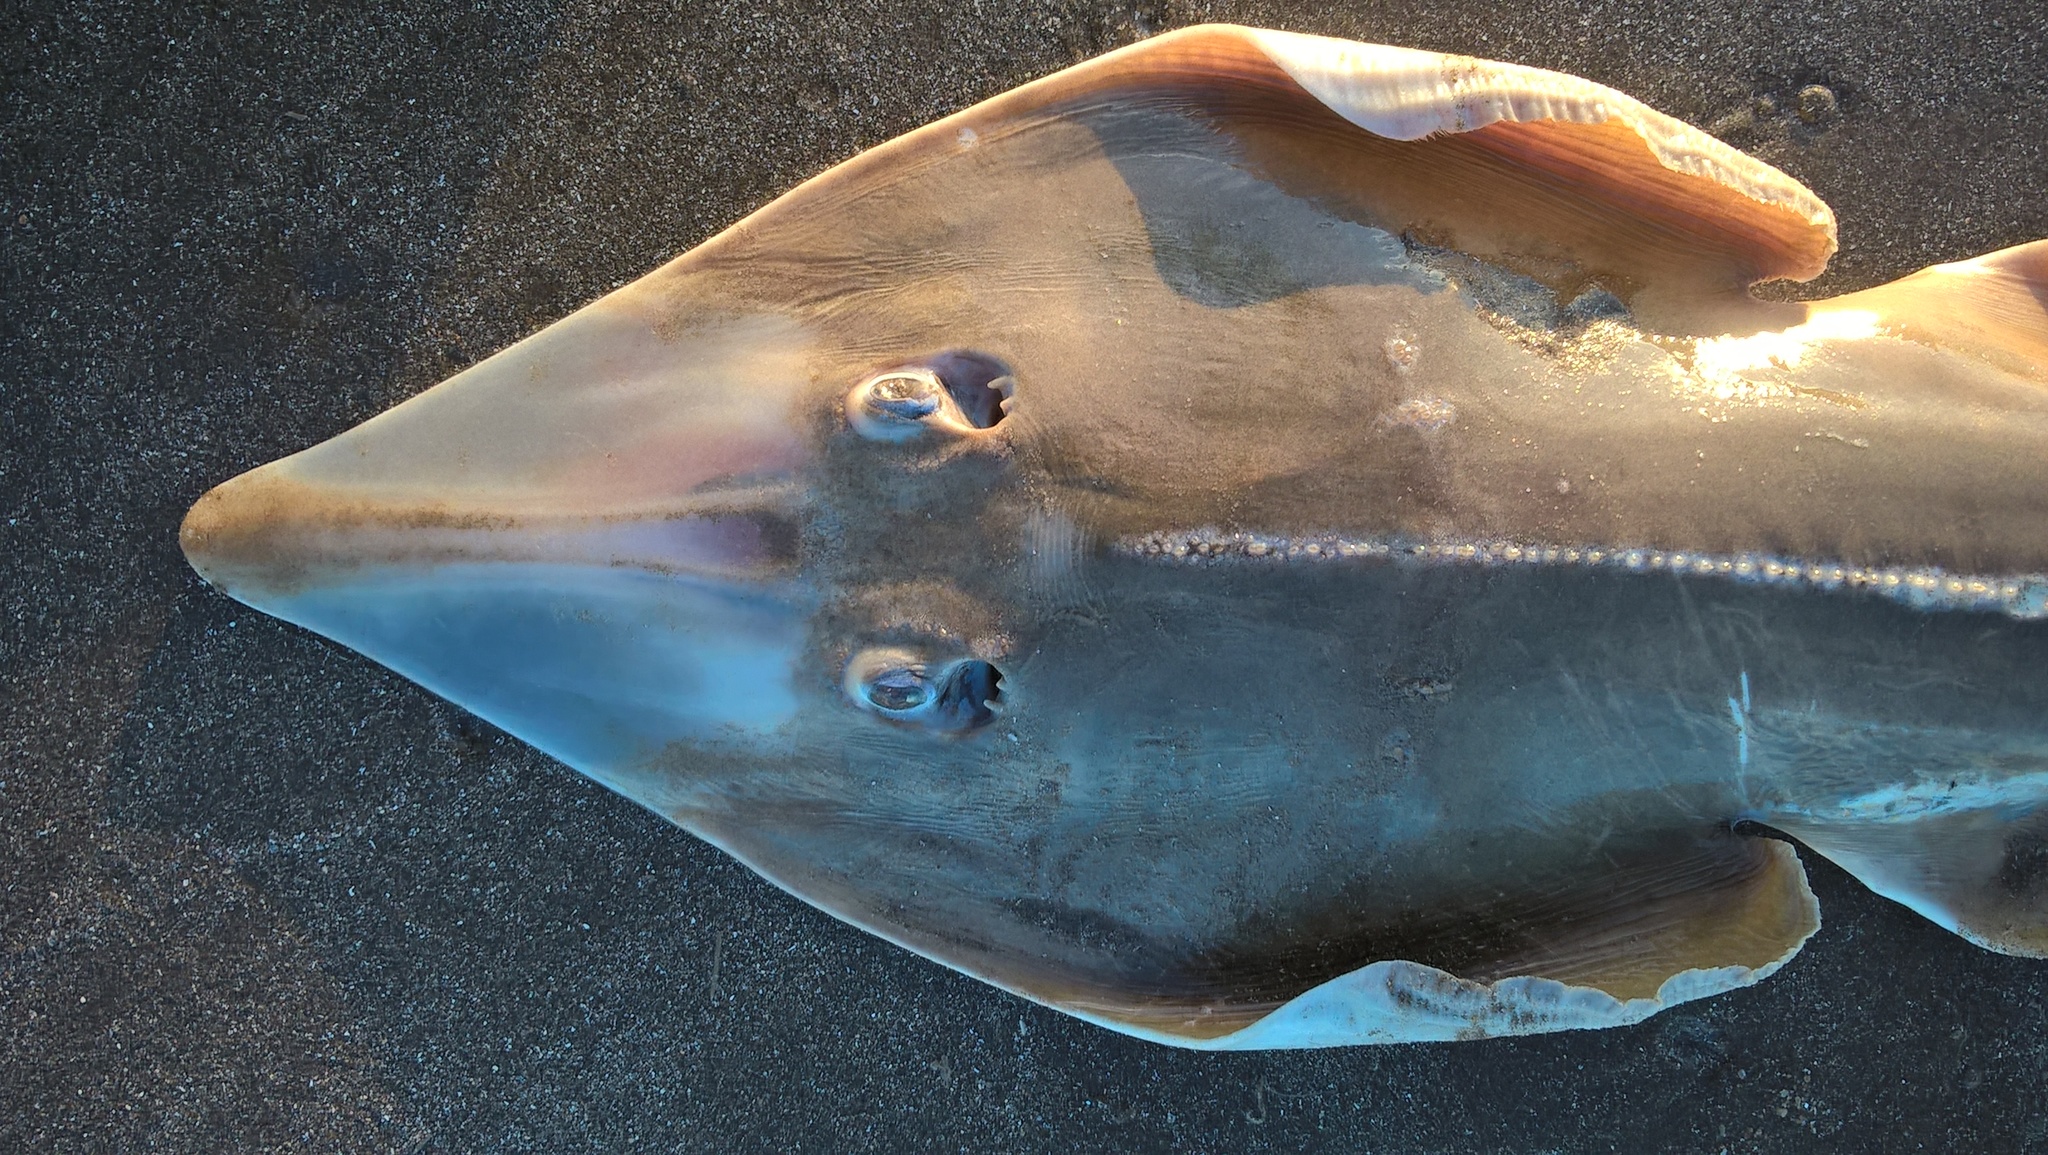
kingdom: Animalia
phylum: Chordata
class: Elasmobranchii
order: Rhinopristiformes
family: Rhinobatidae
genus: Pseudobatos
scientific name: Pseudobatos horkelii
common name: Brazilian guitarfish
